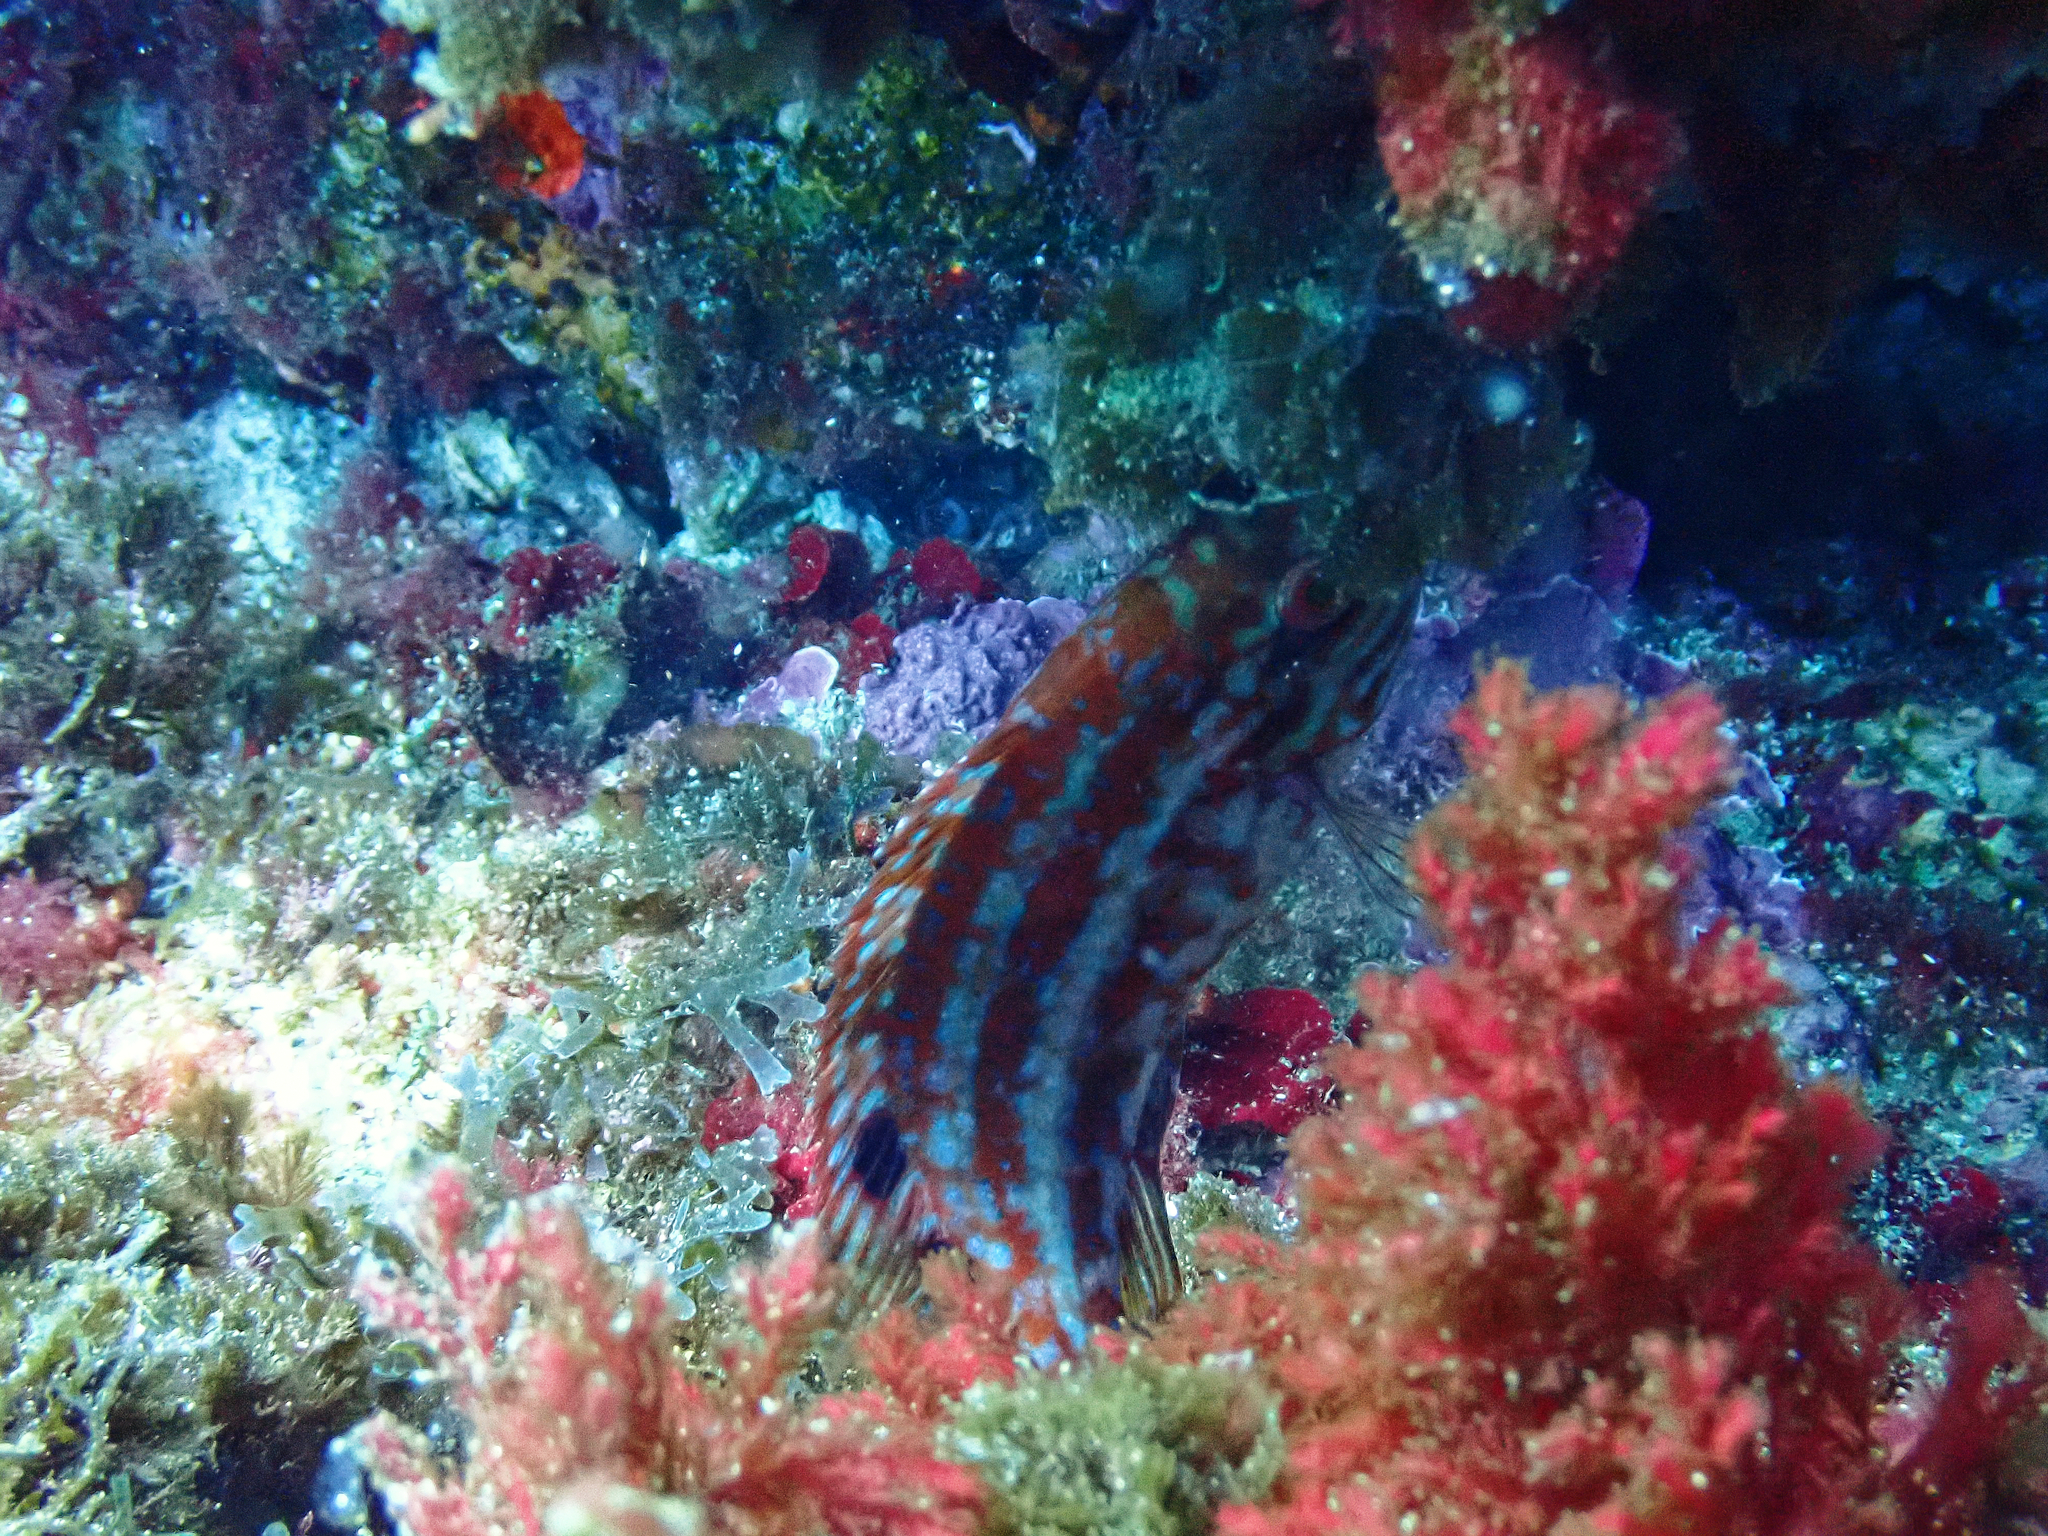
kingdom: Animalia
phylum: Chordata
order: Perciformes
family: Labridae
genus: Symphodus
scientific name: Symphodus roissali
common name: Five-spotted wrasse
